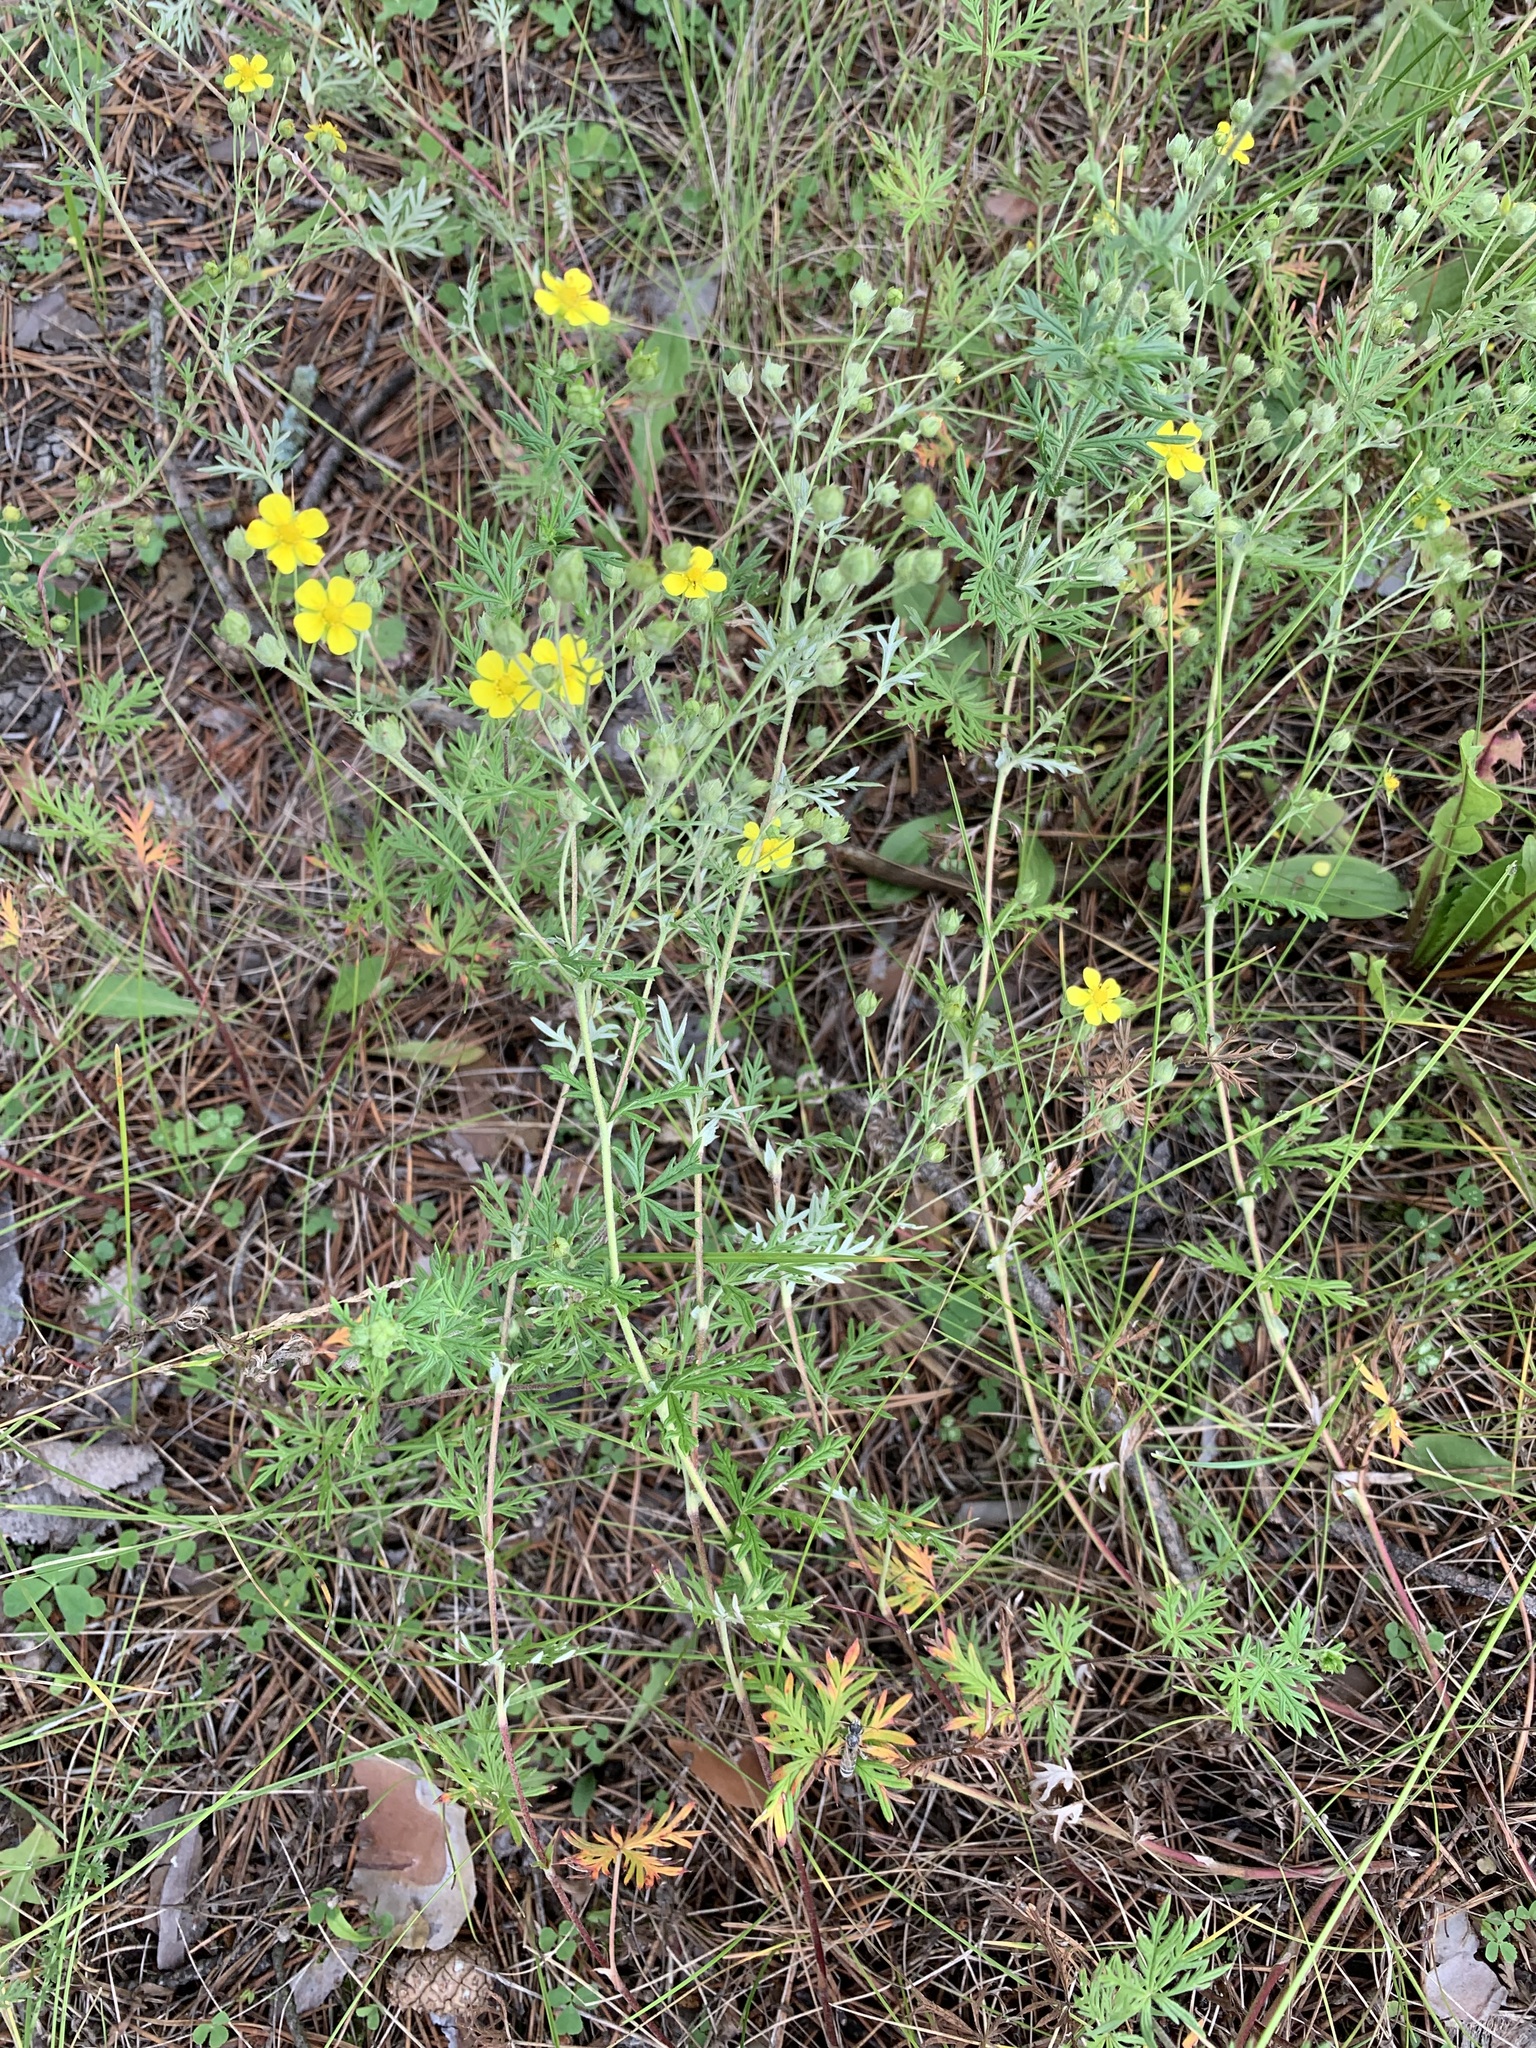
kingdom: Plantae
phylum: Tracheophyta
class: Magnoliopsida
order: Rosales
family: Rosaceae
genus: Potentilla
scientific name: Potentilla virgata
